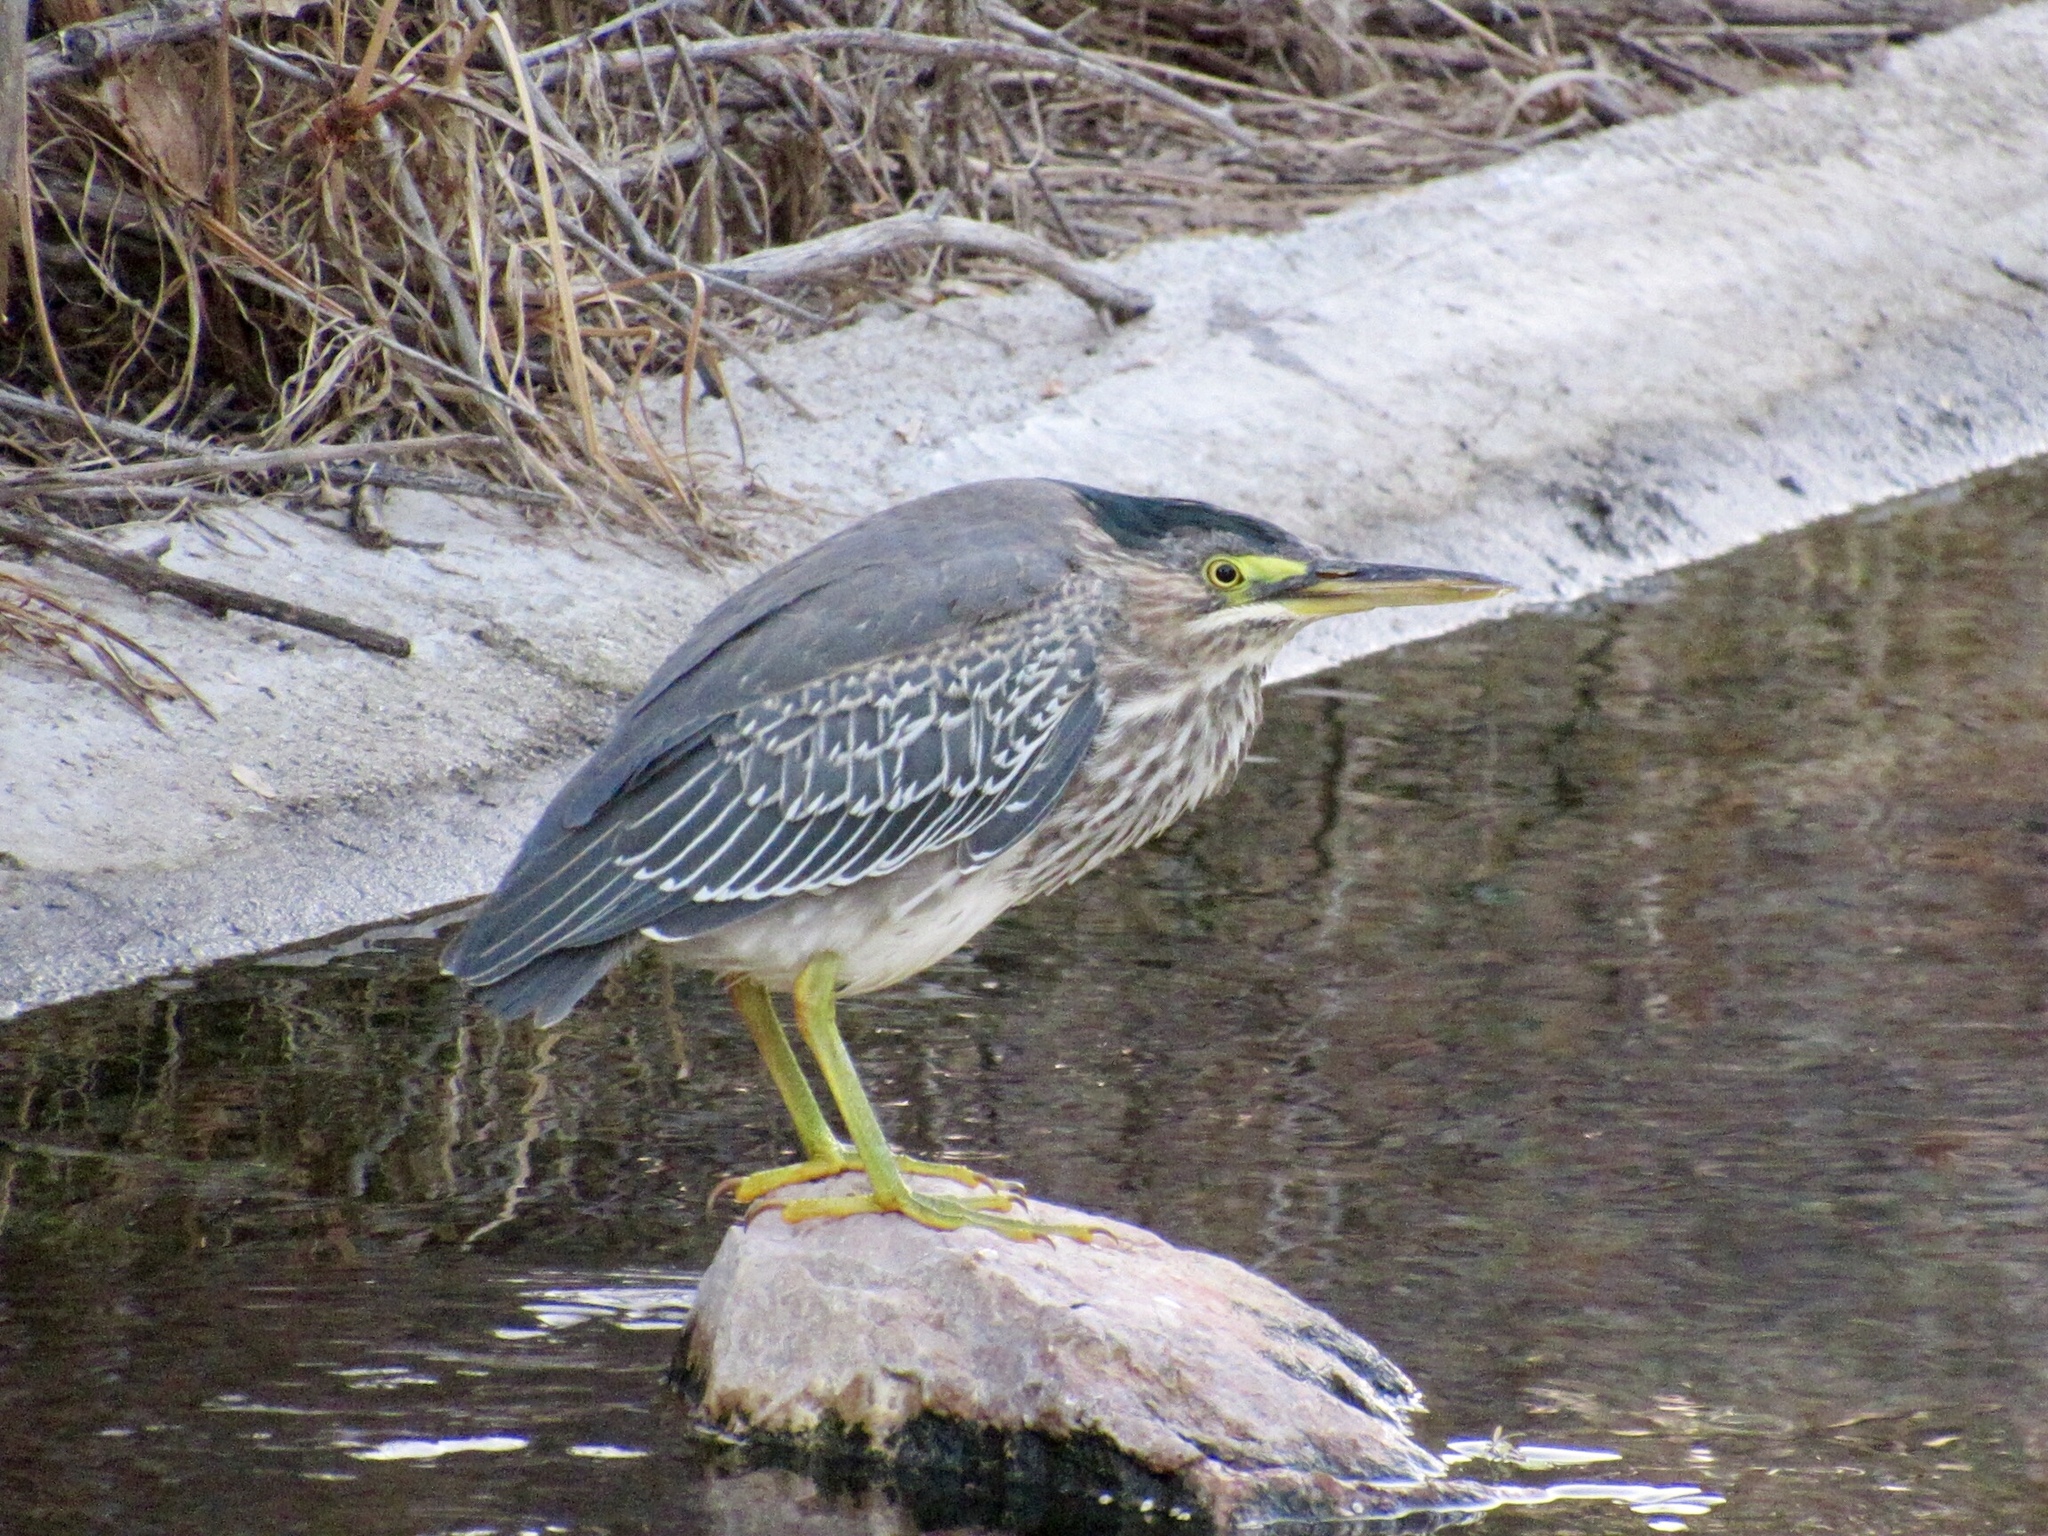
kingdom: Animalia
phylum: Chordata
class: Aves
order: Pelecaniformes
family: Ardeidae
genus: Butorides
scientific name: Butorides virescens
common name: Green heron
